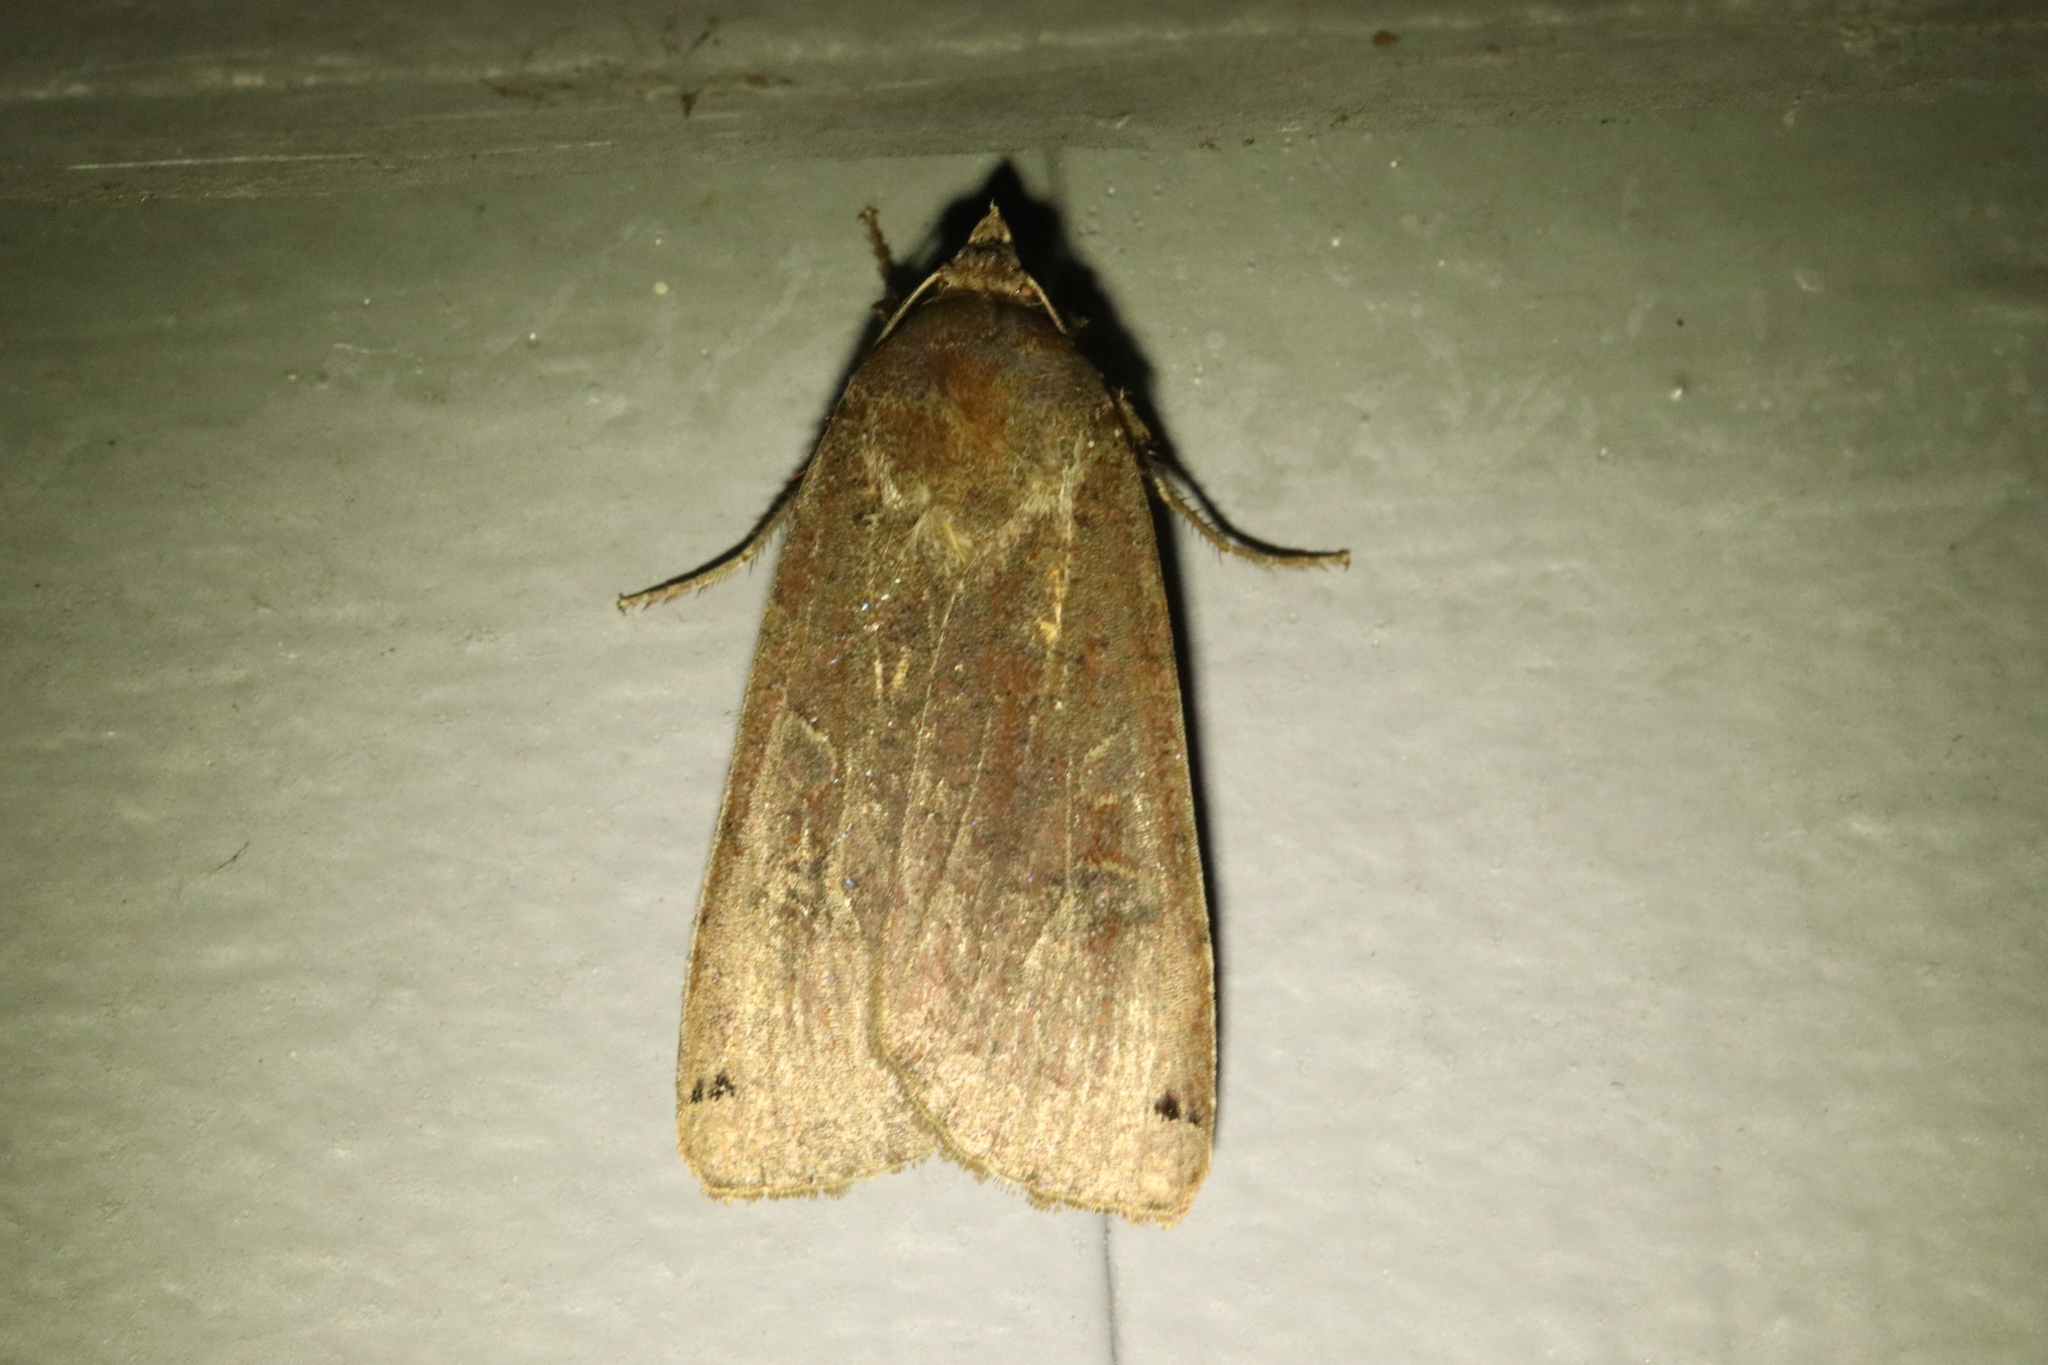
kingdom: Animalia
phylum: Arthropoda
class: Insecta
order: Lepidoptera
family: Noctuidae
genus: Noctua
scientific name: Noctua pronuba
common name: Large yellow underwing
